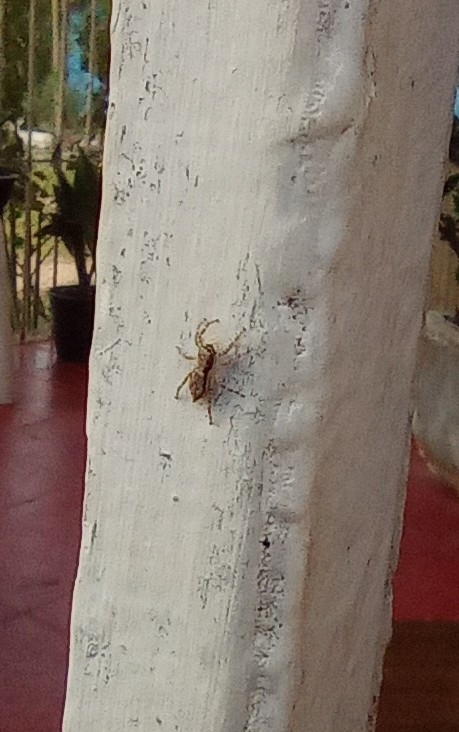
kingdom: Animalia
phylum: Arthropoda
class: Arachnida
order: Araneae
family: Salticidae
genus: Menemerus
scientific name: Menemerus bivittatus
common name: Gray wall jumper
